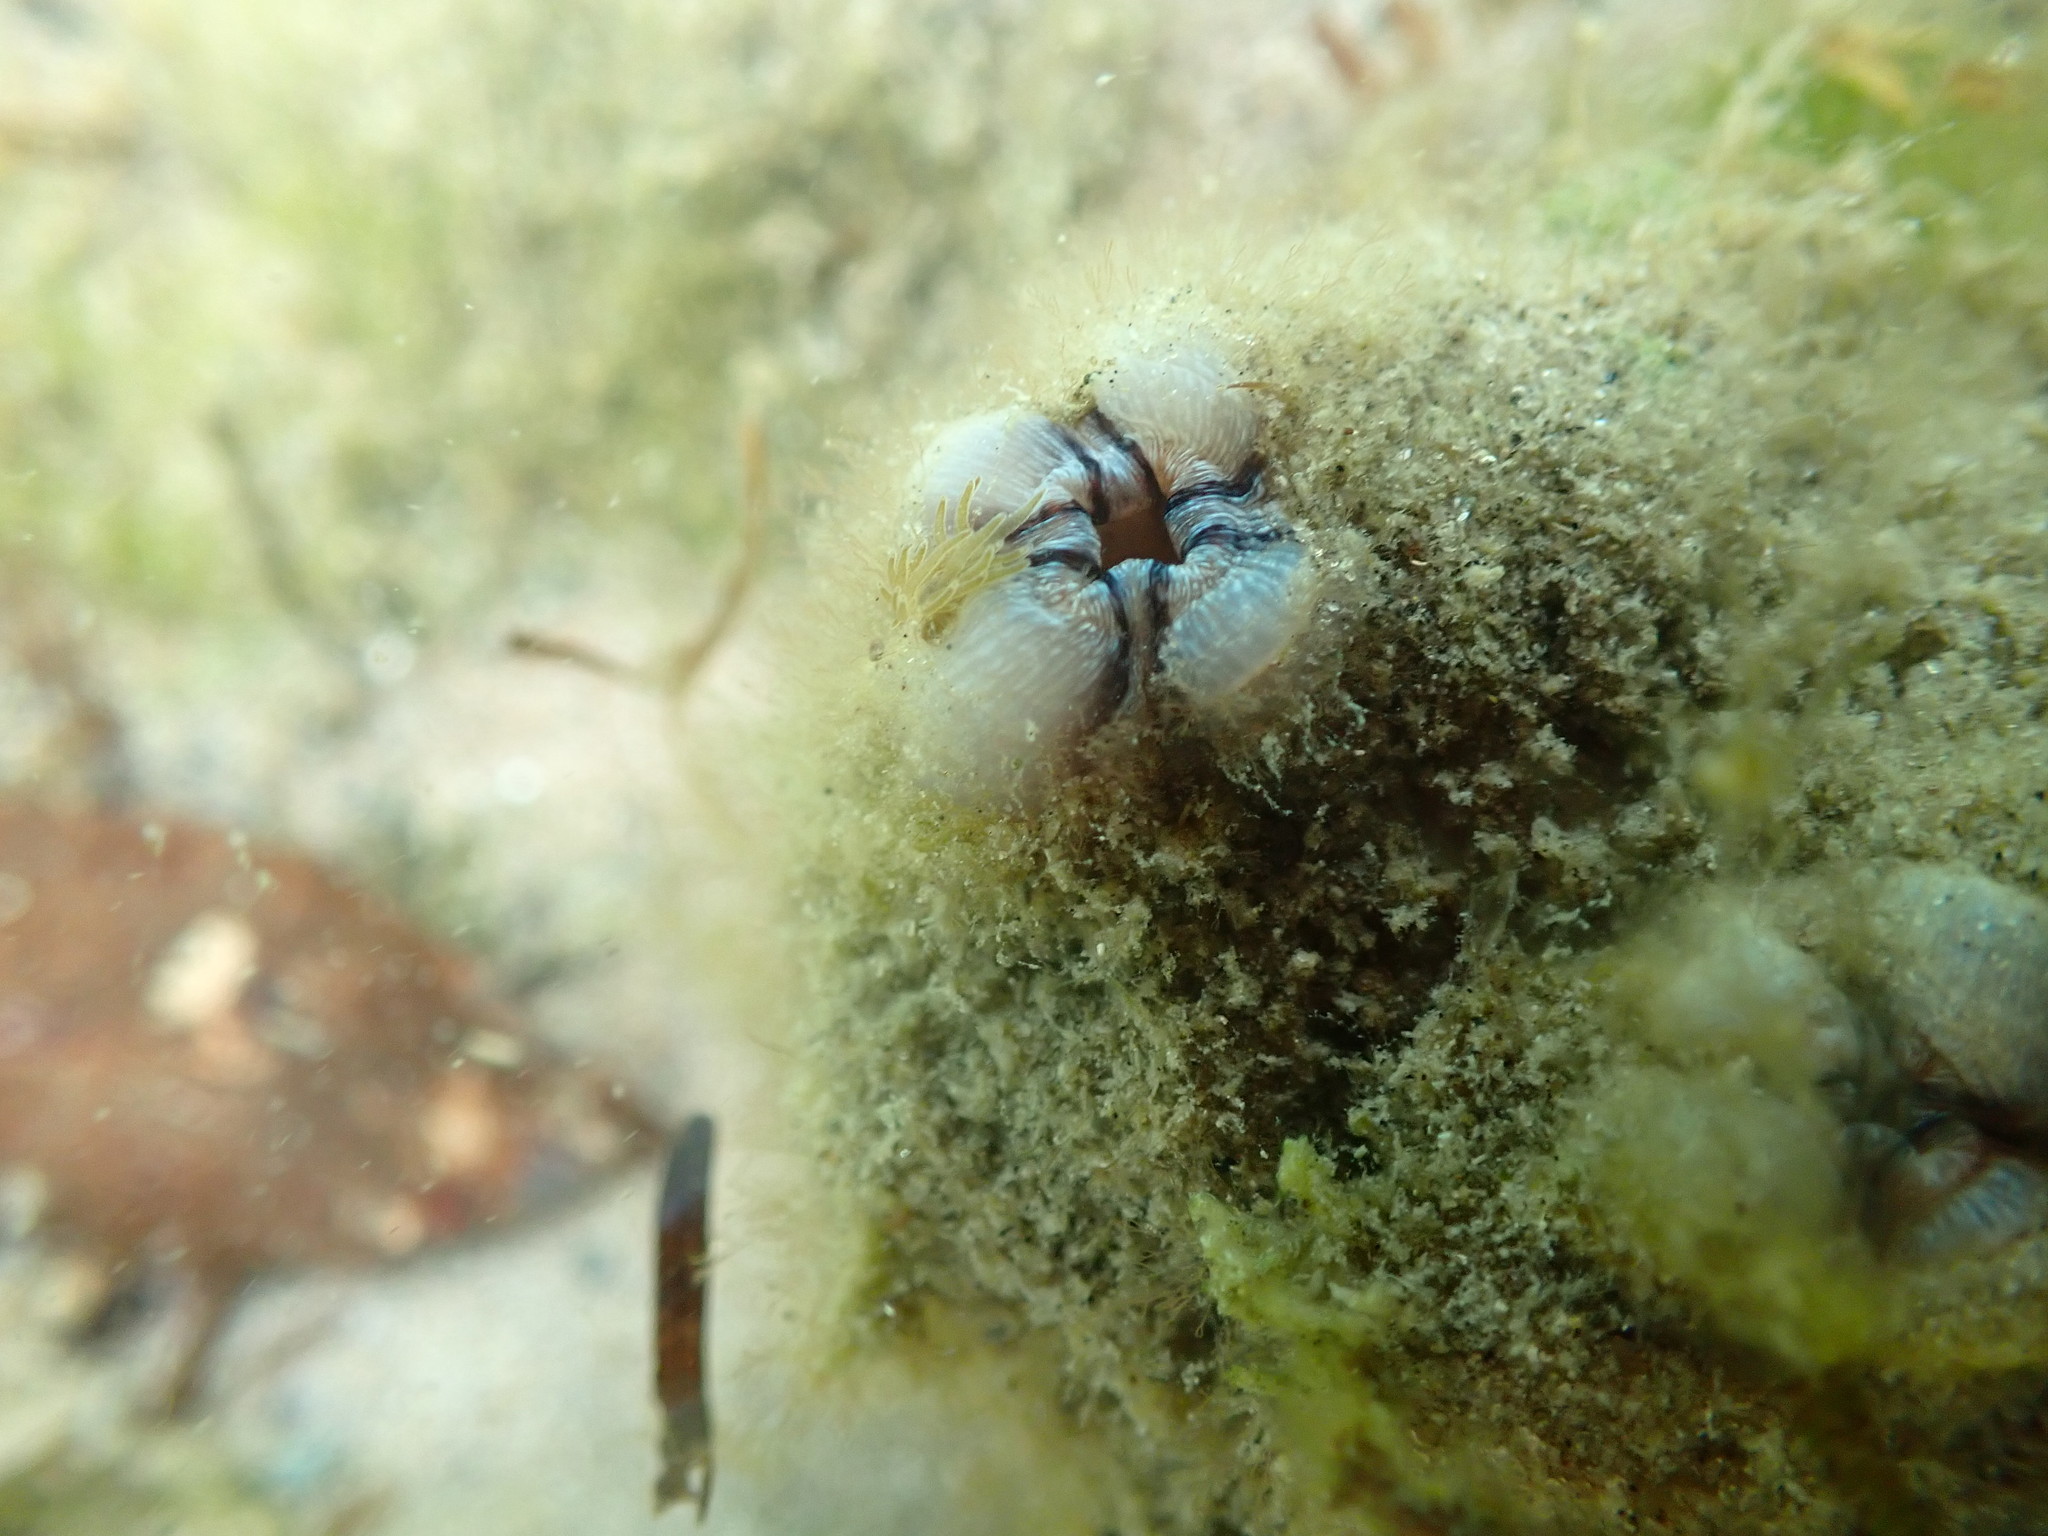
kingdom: Animalia
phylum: Chordata
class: Ascidiacea
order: Stolidobranchia
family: Styelidae
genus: Styela
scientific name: Styela plicata
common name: Pleated tunicate
